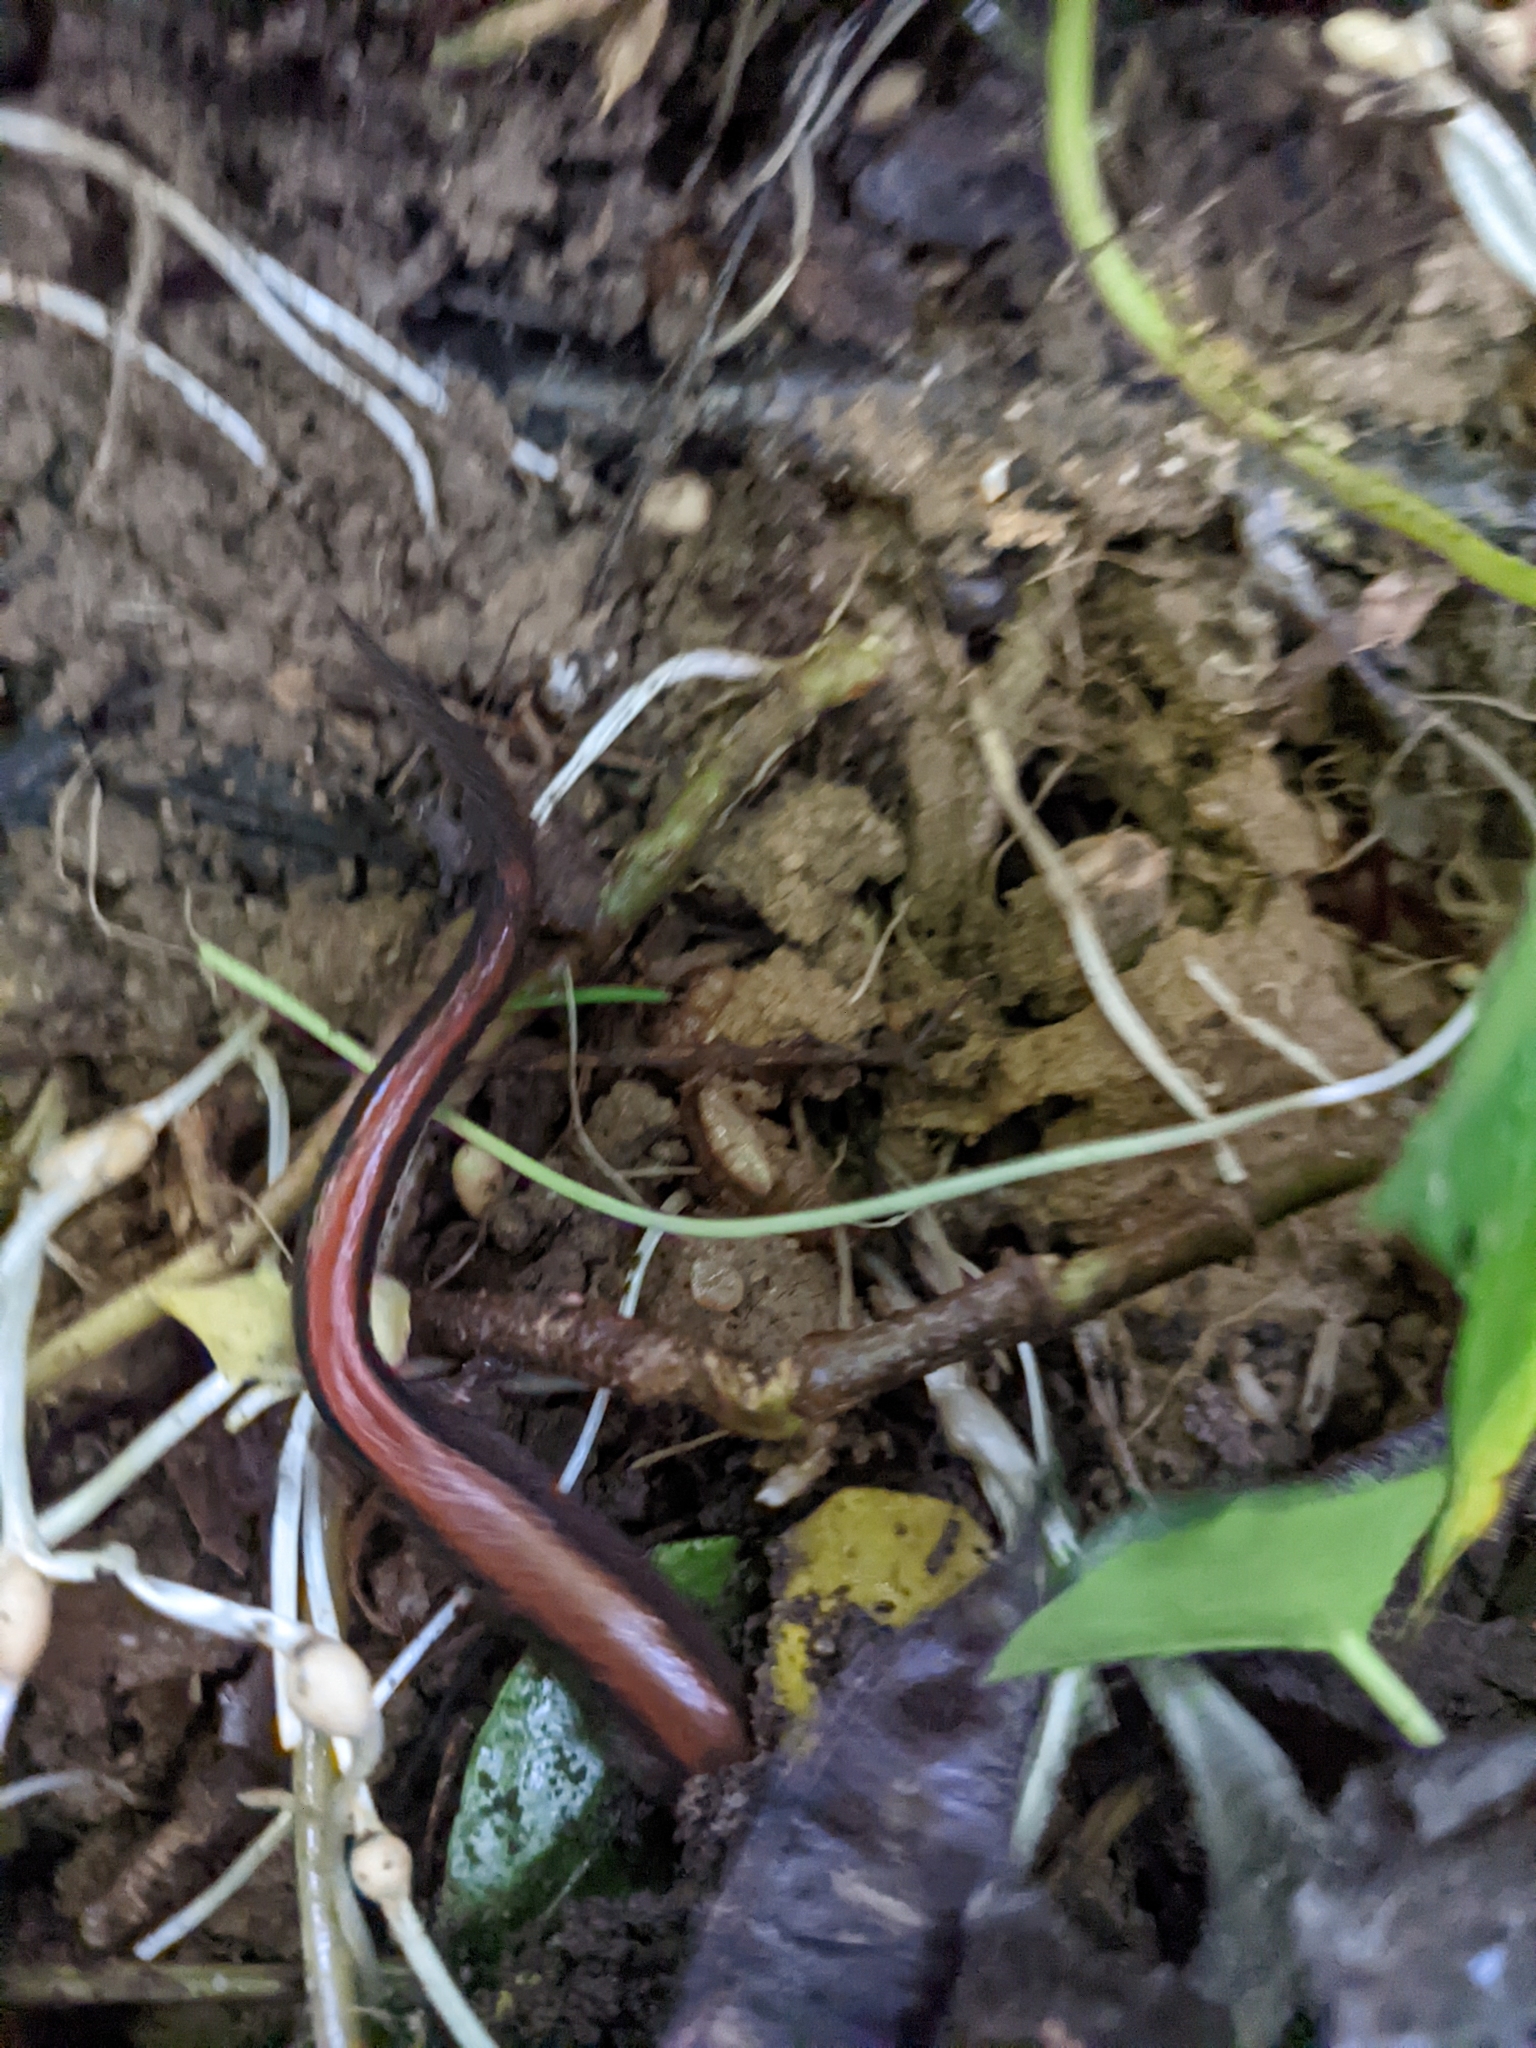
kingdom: Animalia
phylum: Chordata
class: Amphibia
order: Caudata
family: Plethodontidae
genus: Plethodon
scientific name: Plethodon cinereus
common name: Redback salamander
